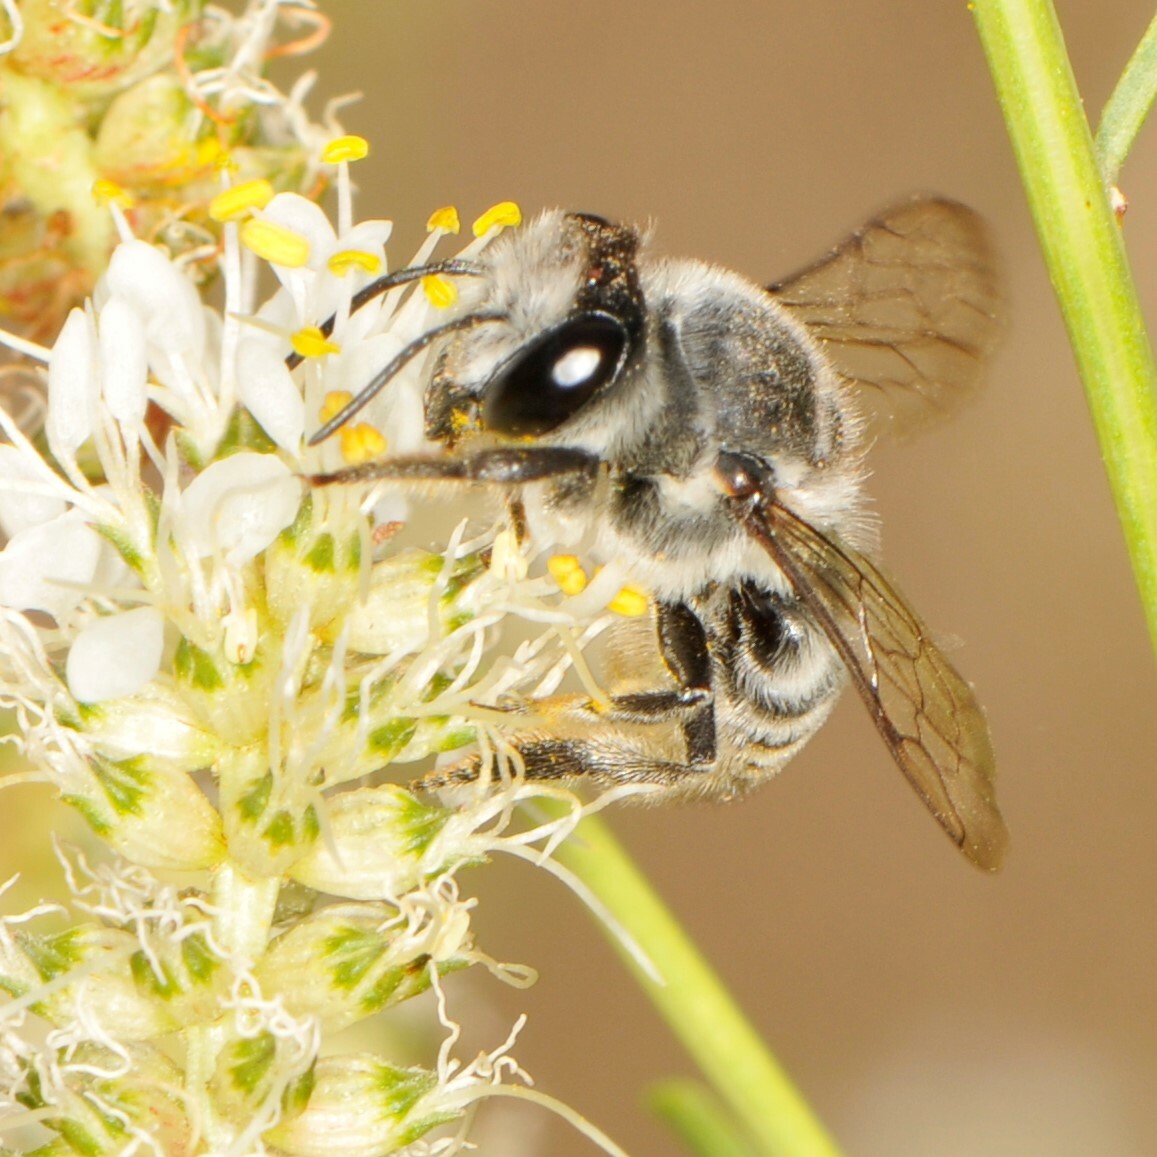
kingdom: Animalia
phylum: Arthropoda
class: Insecta
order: Hymenoptera
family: Megachilidae
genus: Megachile
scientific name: Megachile
